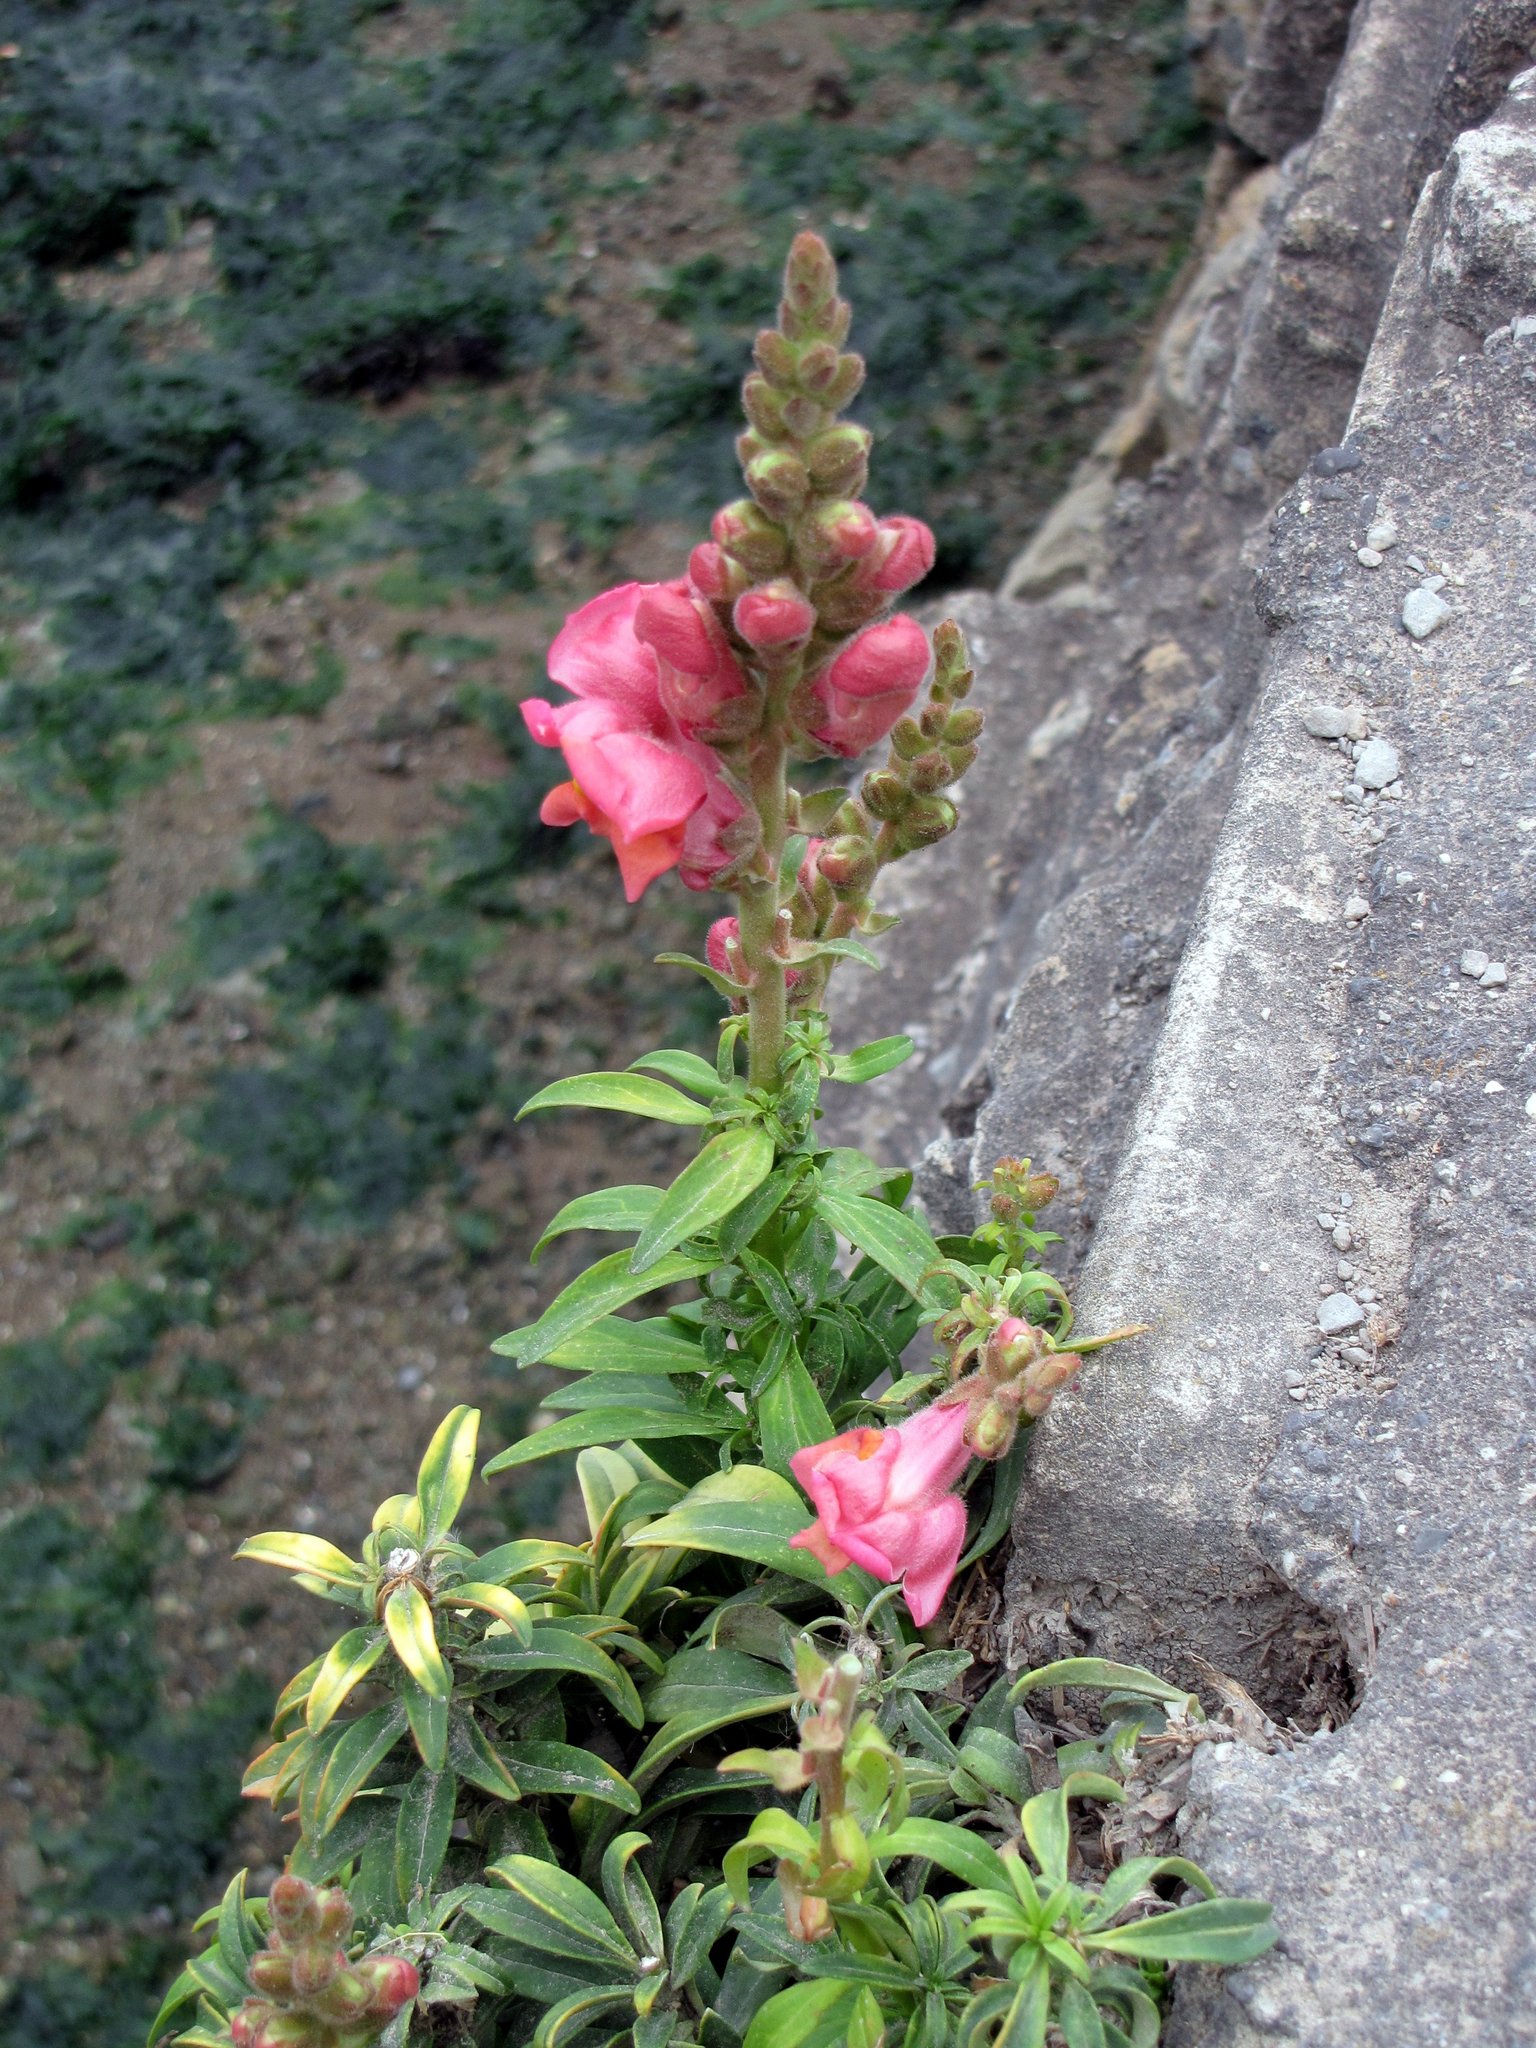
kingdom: Plantae
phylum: Tracheophyta
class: Magnoliopsida
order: Lamiales
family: Plantaginaceae
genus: Antirrhinum
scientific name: Antirrhinum majus
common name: Snapdragon
